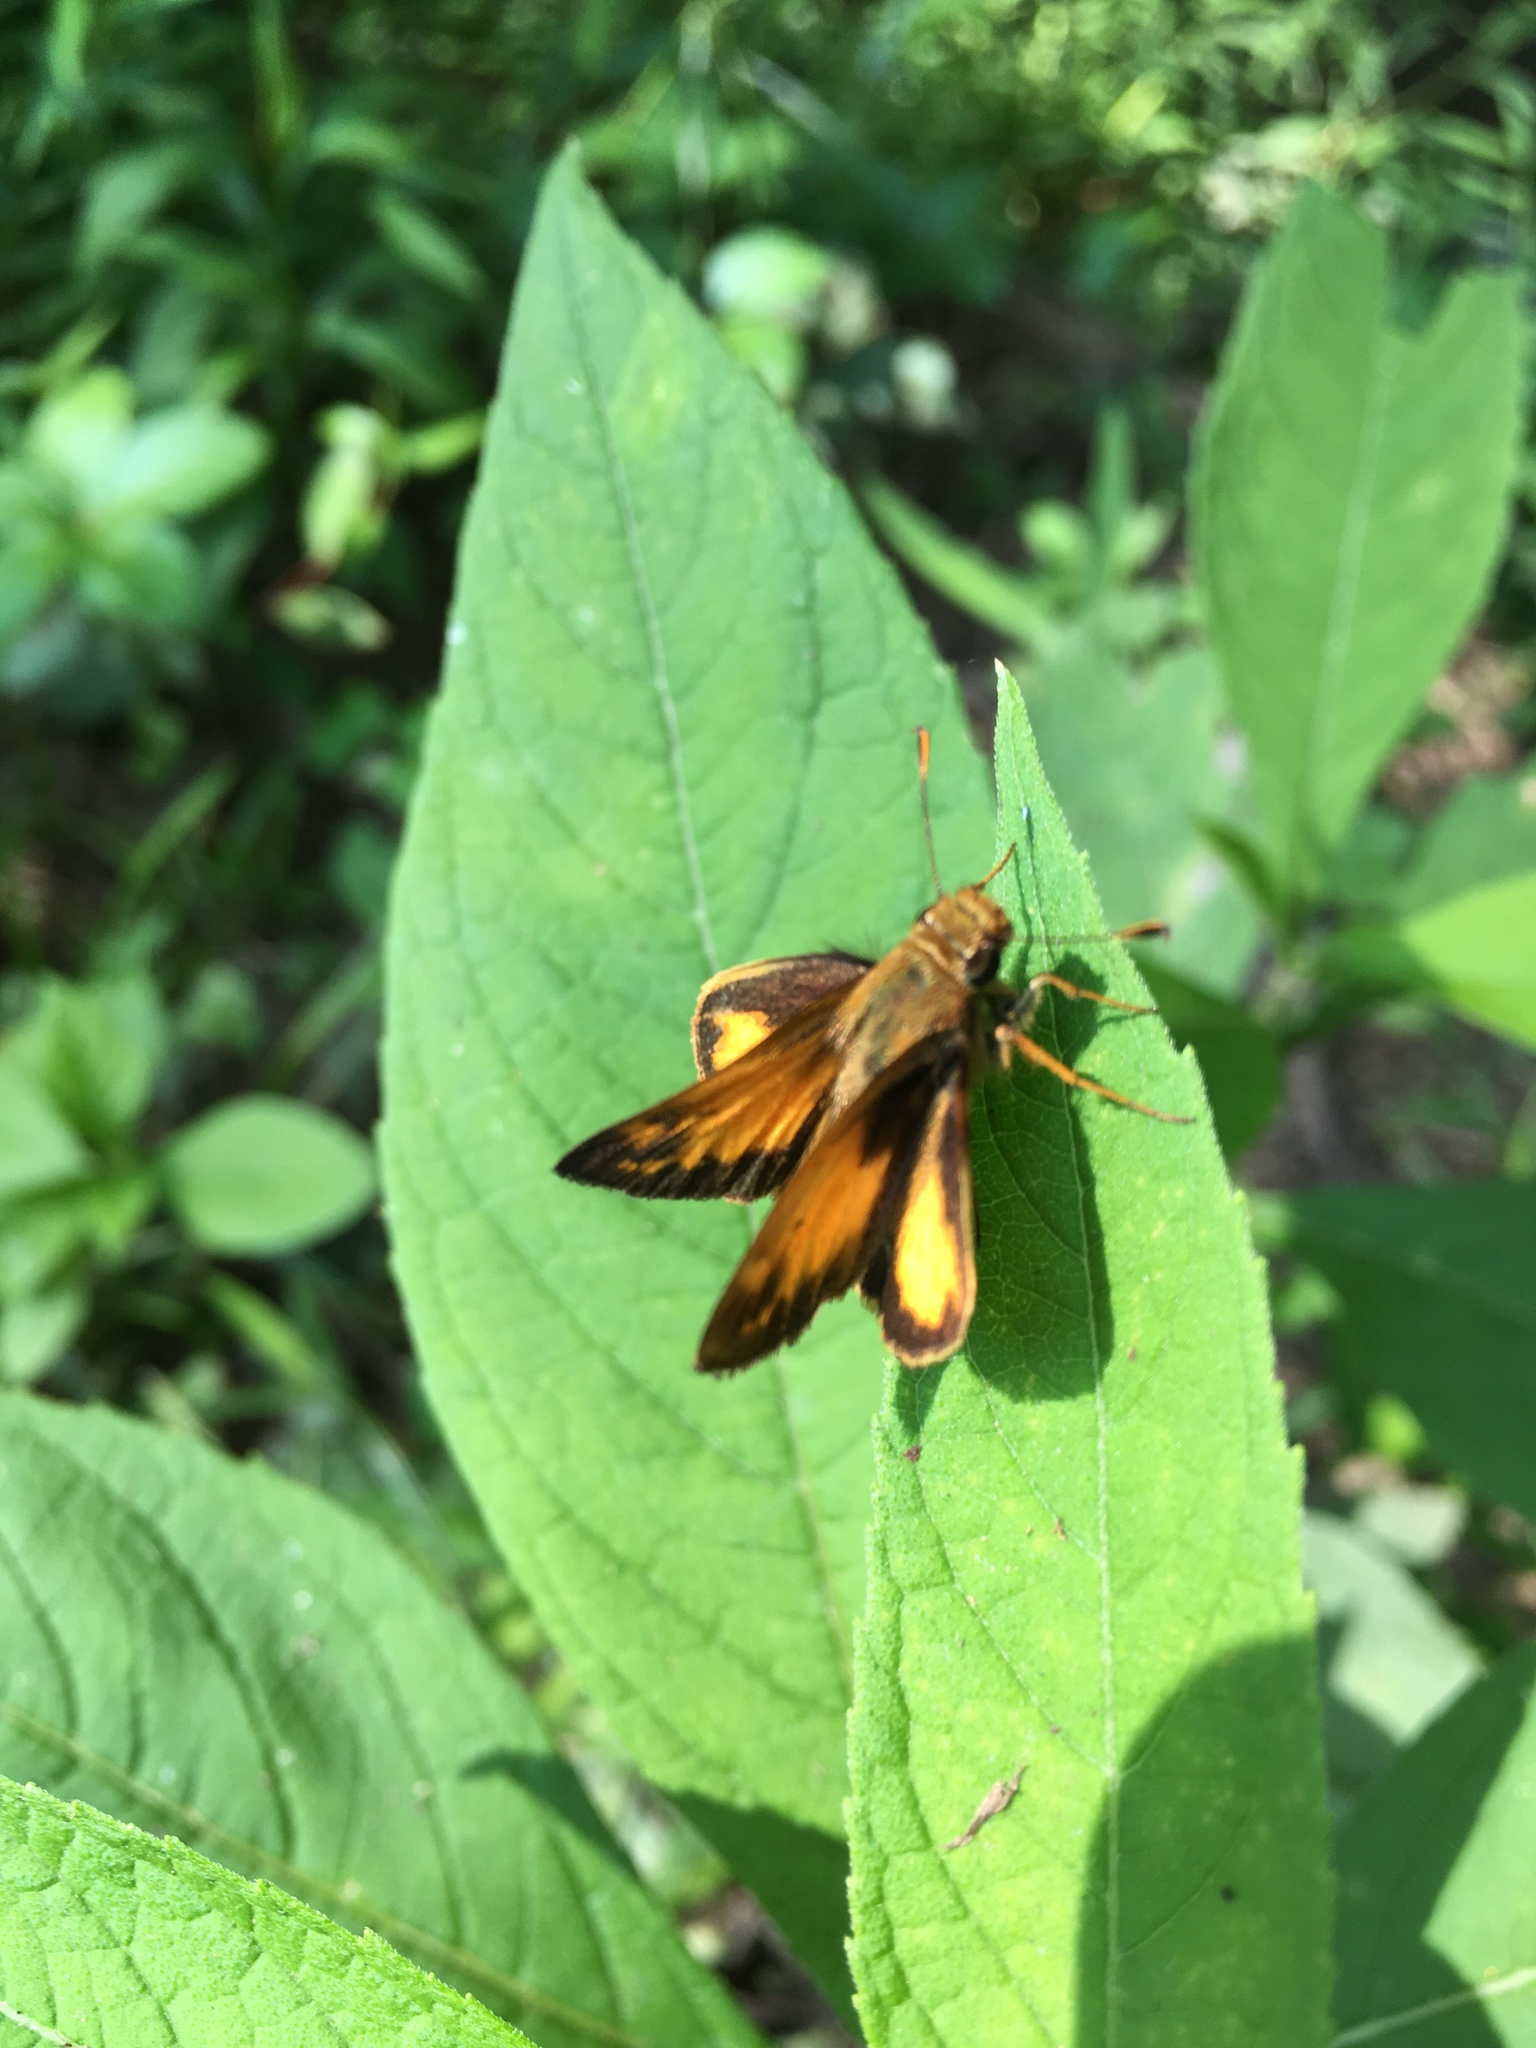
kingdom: Animalia
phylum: Arthropoda
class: Insecta
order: Lepidoptera
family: Hesperiidae
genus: Lon
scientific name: Lon zabulon
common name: Zabulon skipper
